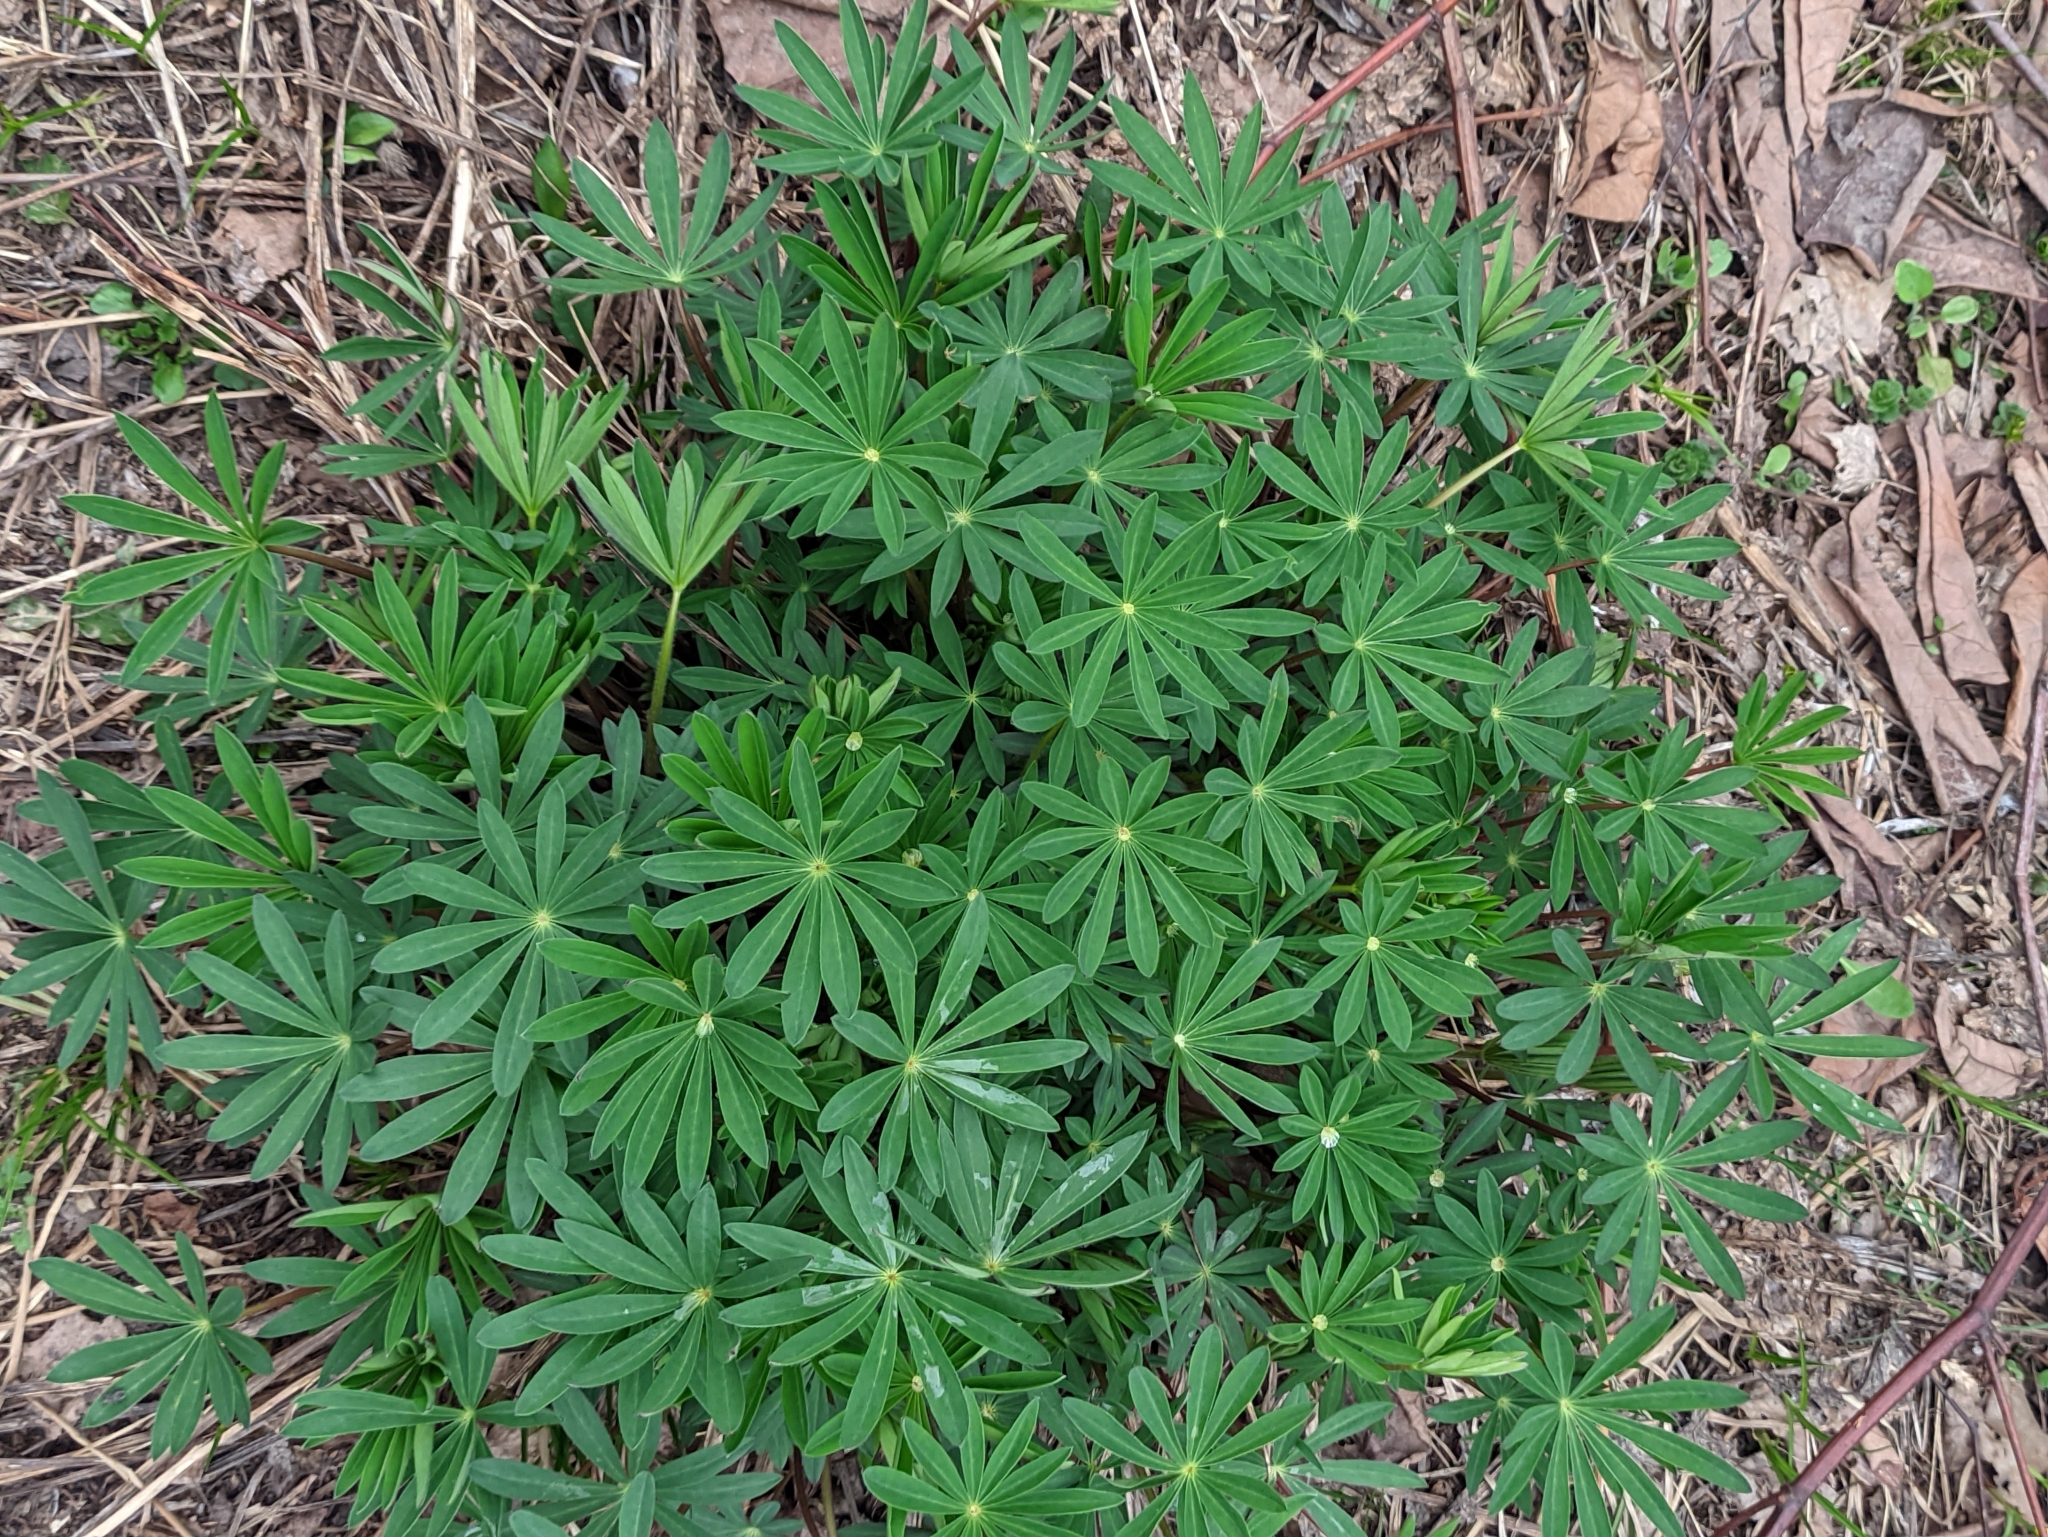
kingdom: Plantae
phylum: Tracheophyta
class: Magnoliopsida
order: Fabales
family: Fabaceae
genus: Lupinus
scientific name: Lupinus polyphyllus
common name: Garden lupin
